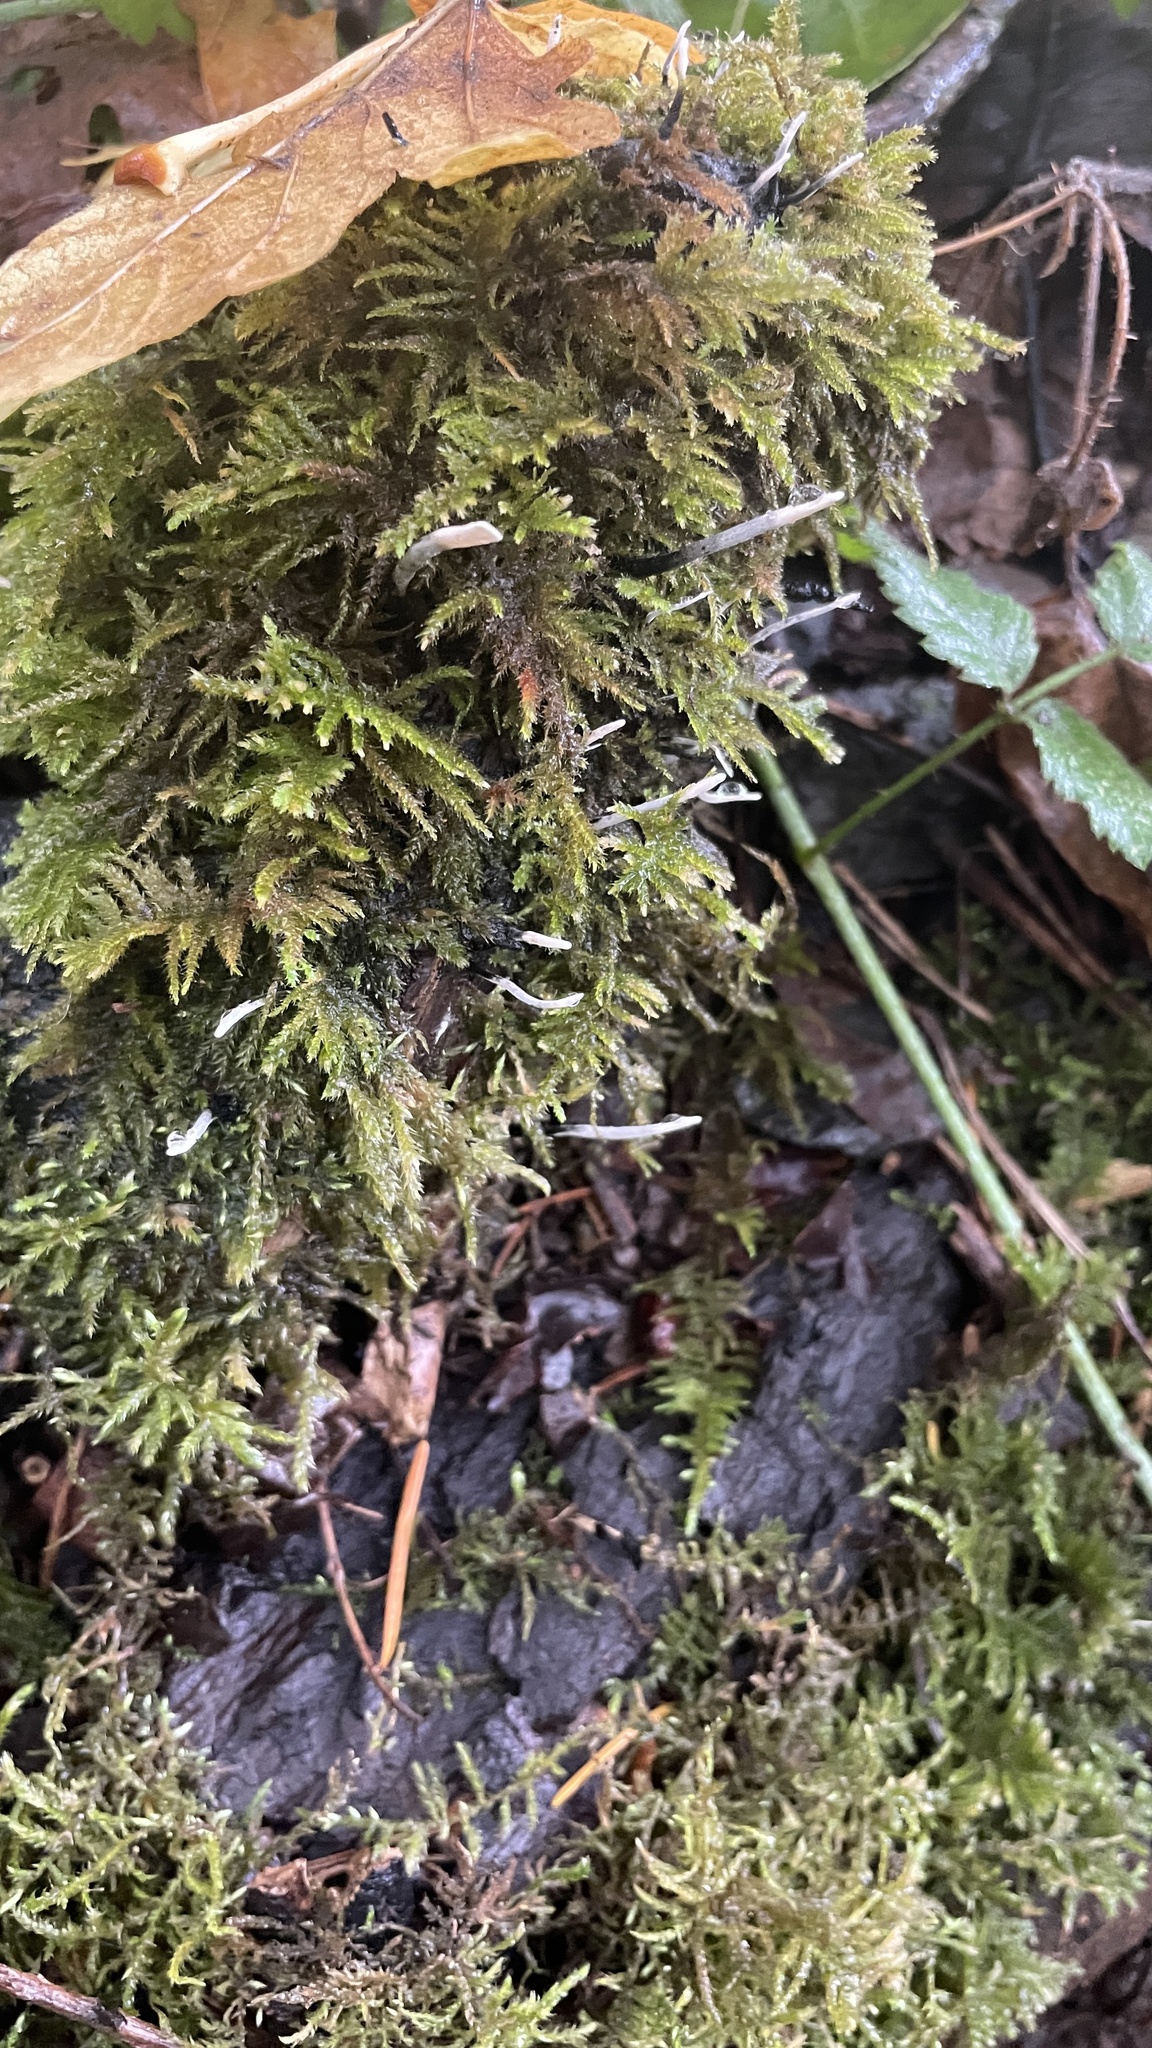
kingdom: Fungi
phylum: Ascomycota
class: Sordariomycetes
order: Xylariales
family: Xylariaceae
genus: Xylaria
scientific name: Xylaria hypoxylon
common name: Candle-snuff fungus
